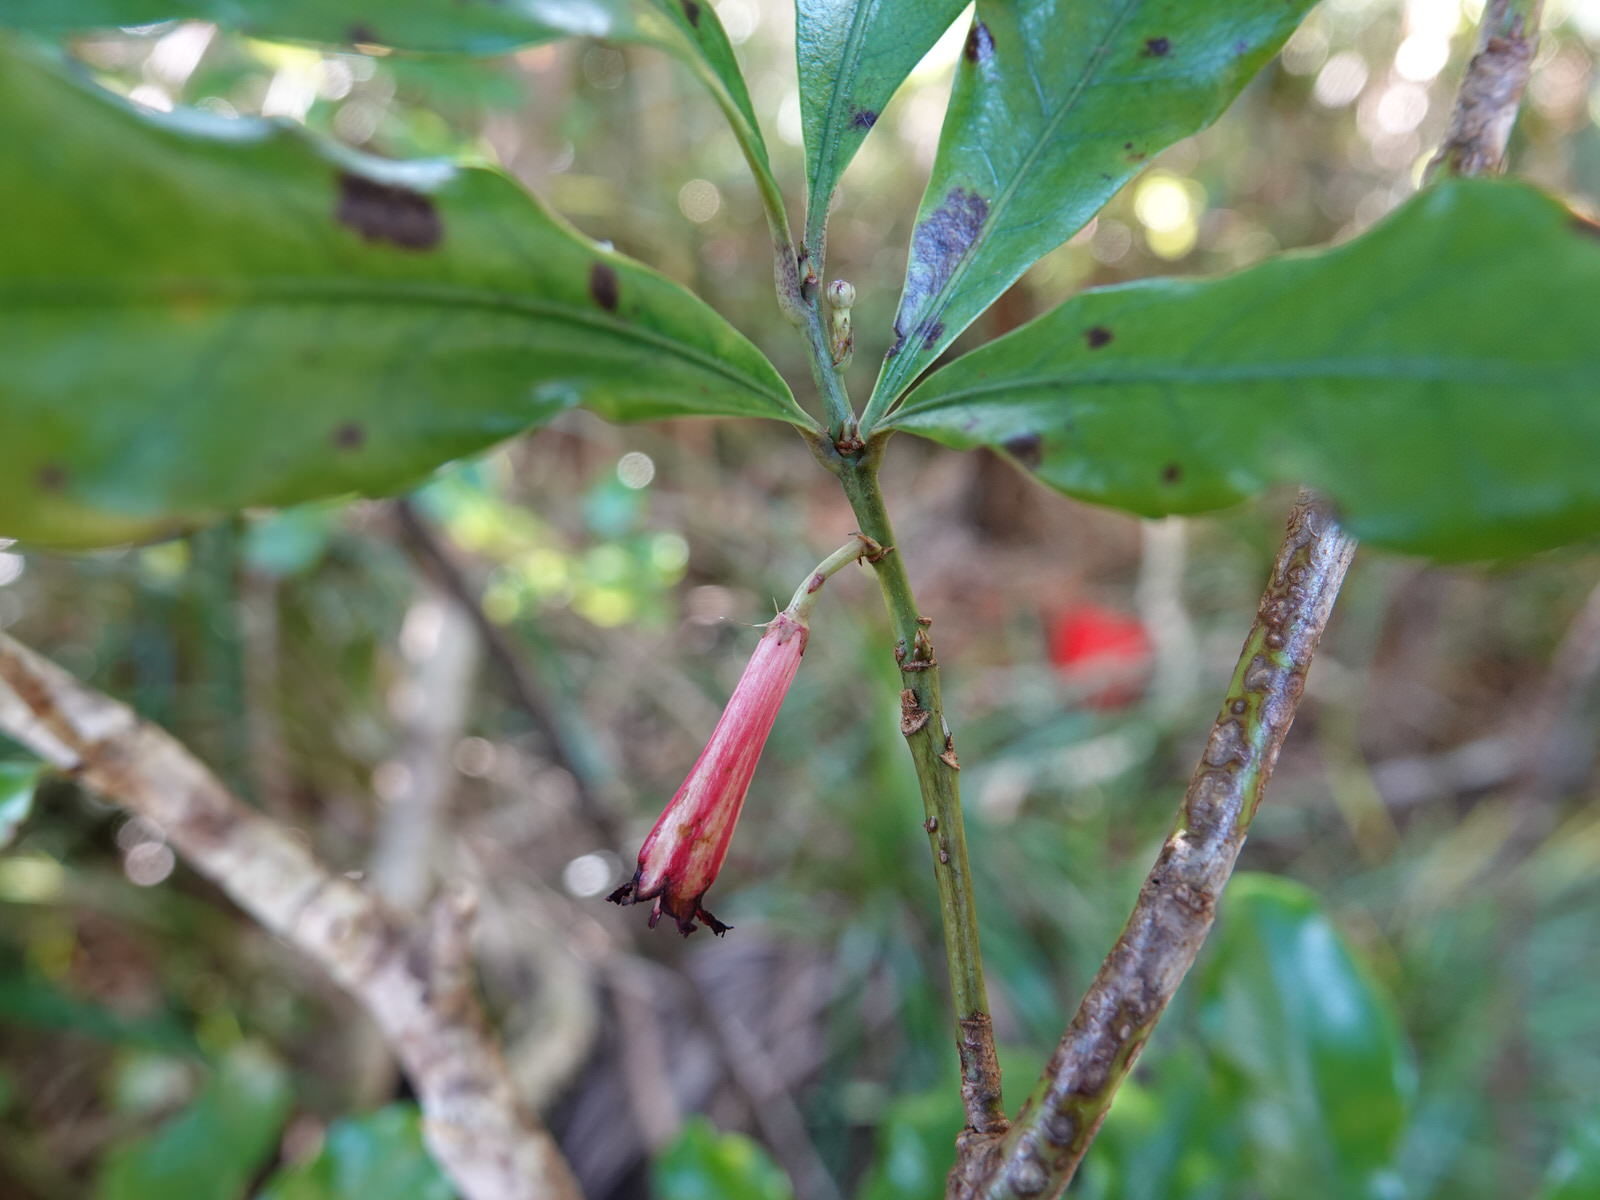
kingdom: Plantae
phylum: Tracheophyta
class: Magnoliopsida
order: Asterales
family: Alseuosmiaceae
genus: Alseuosmia
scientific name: Alseuosmia macrophylla
